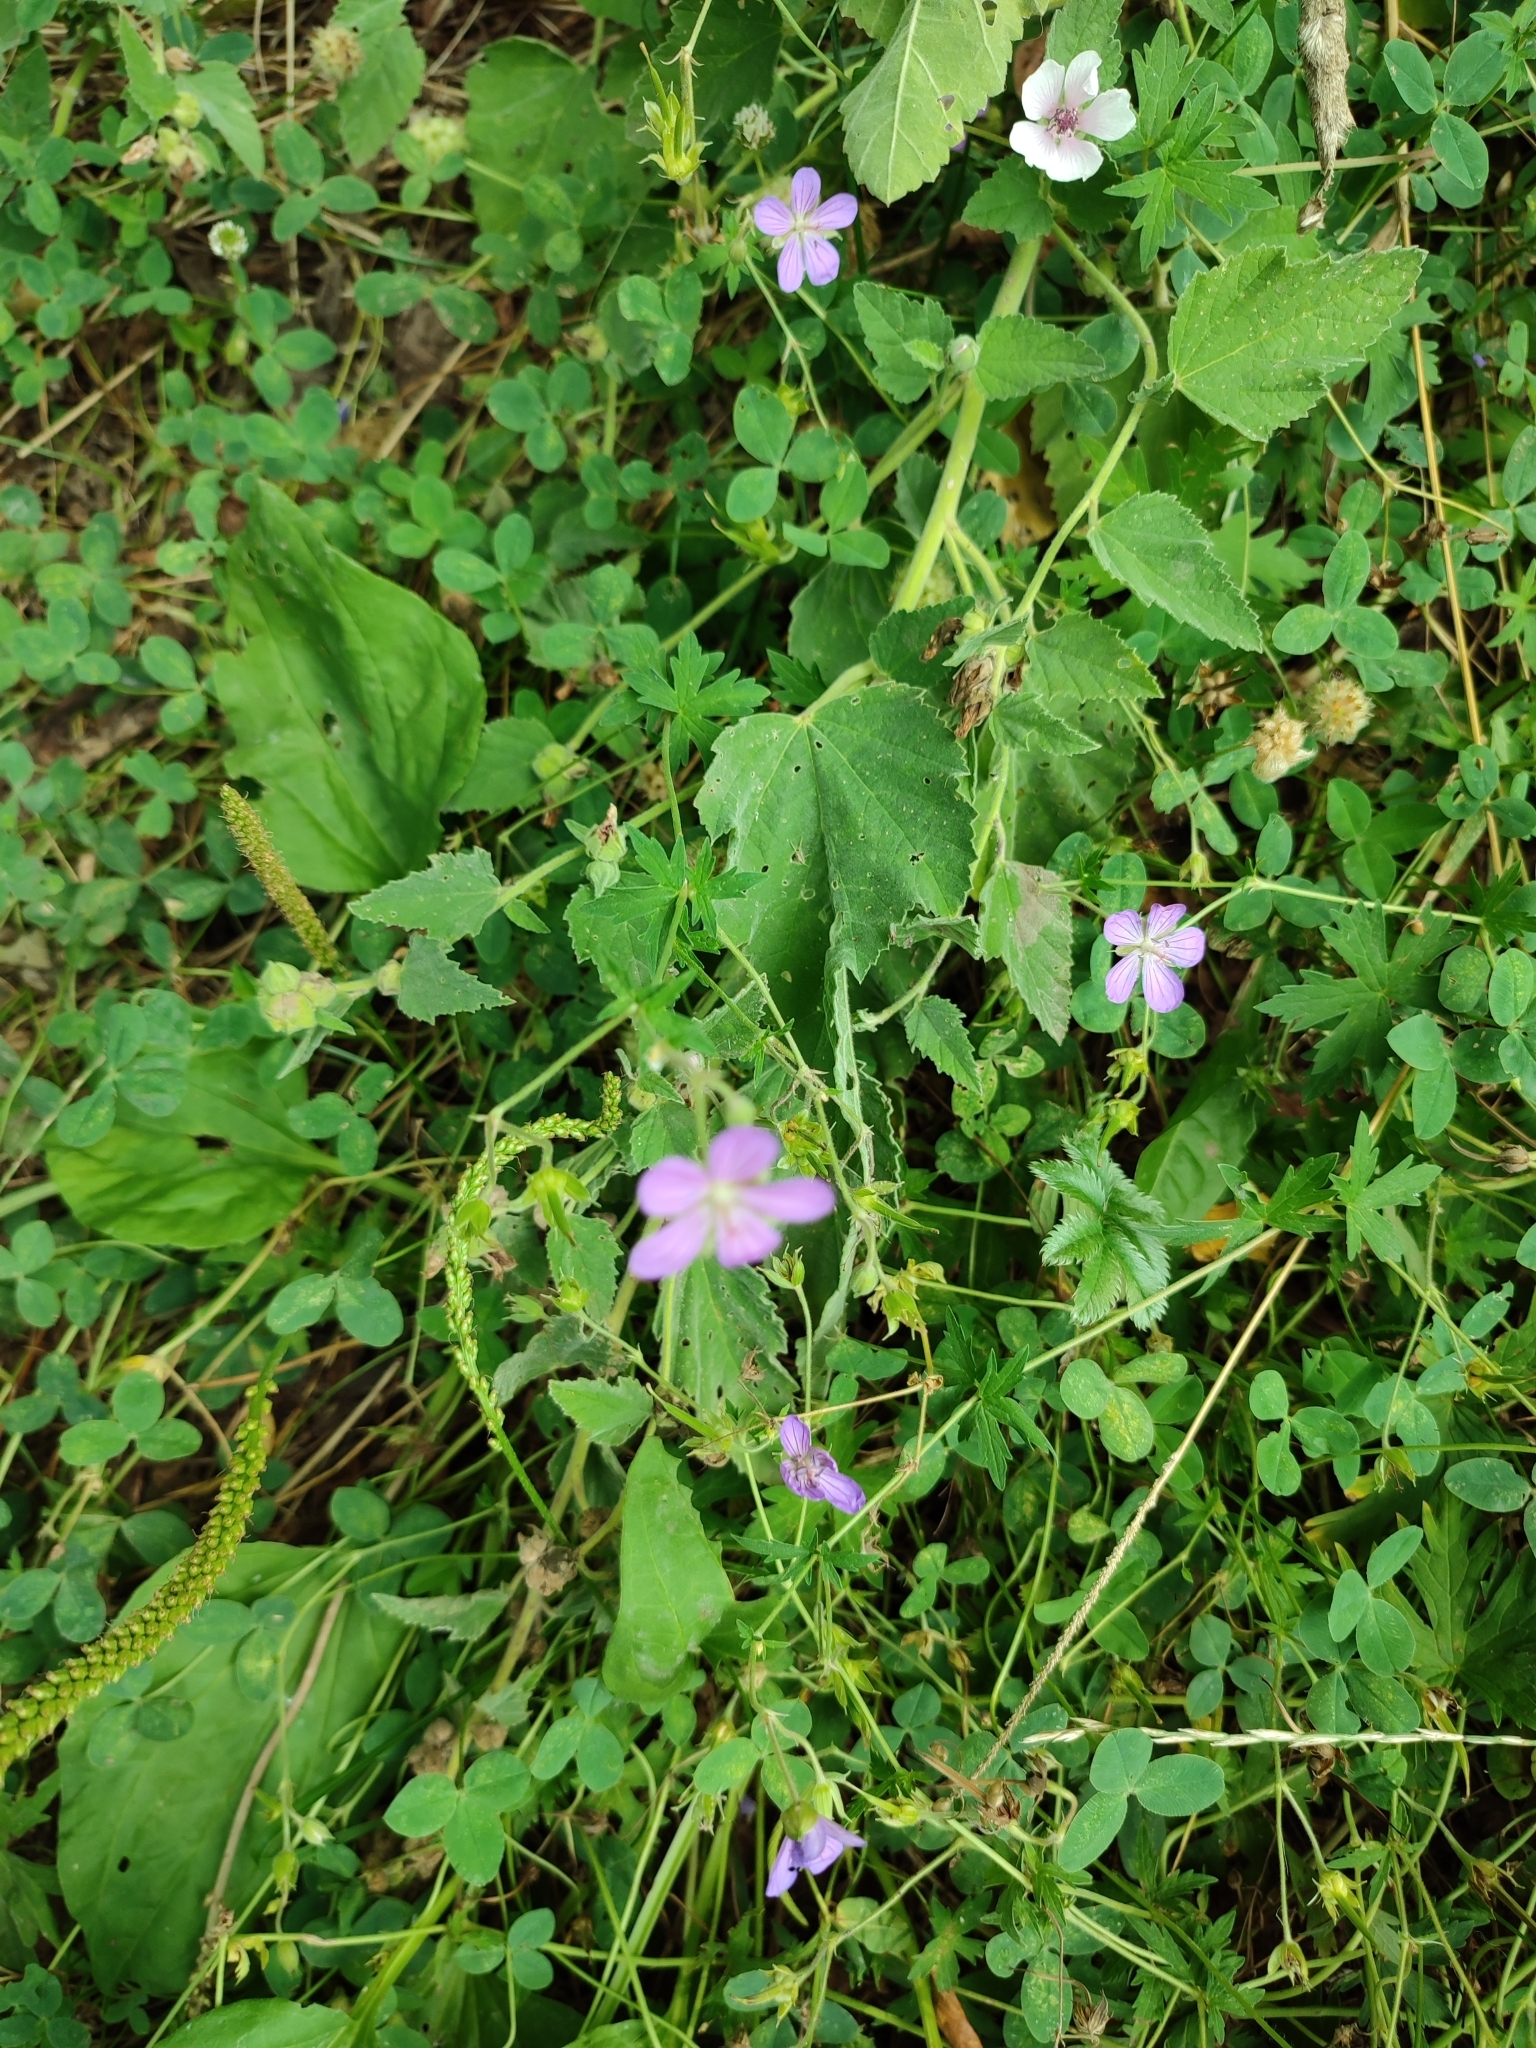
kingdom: Plantae
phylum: Tracheophyta
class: Magnoliopsida
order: Geraniales
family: Geraniaceae
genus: Geranium
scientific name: Geranium collinum
